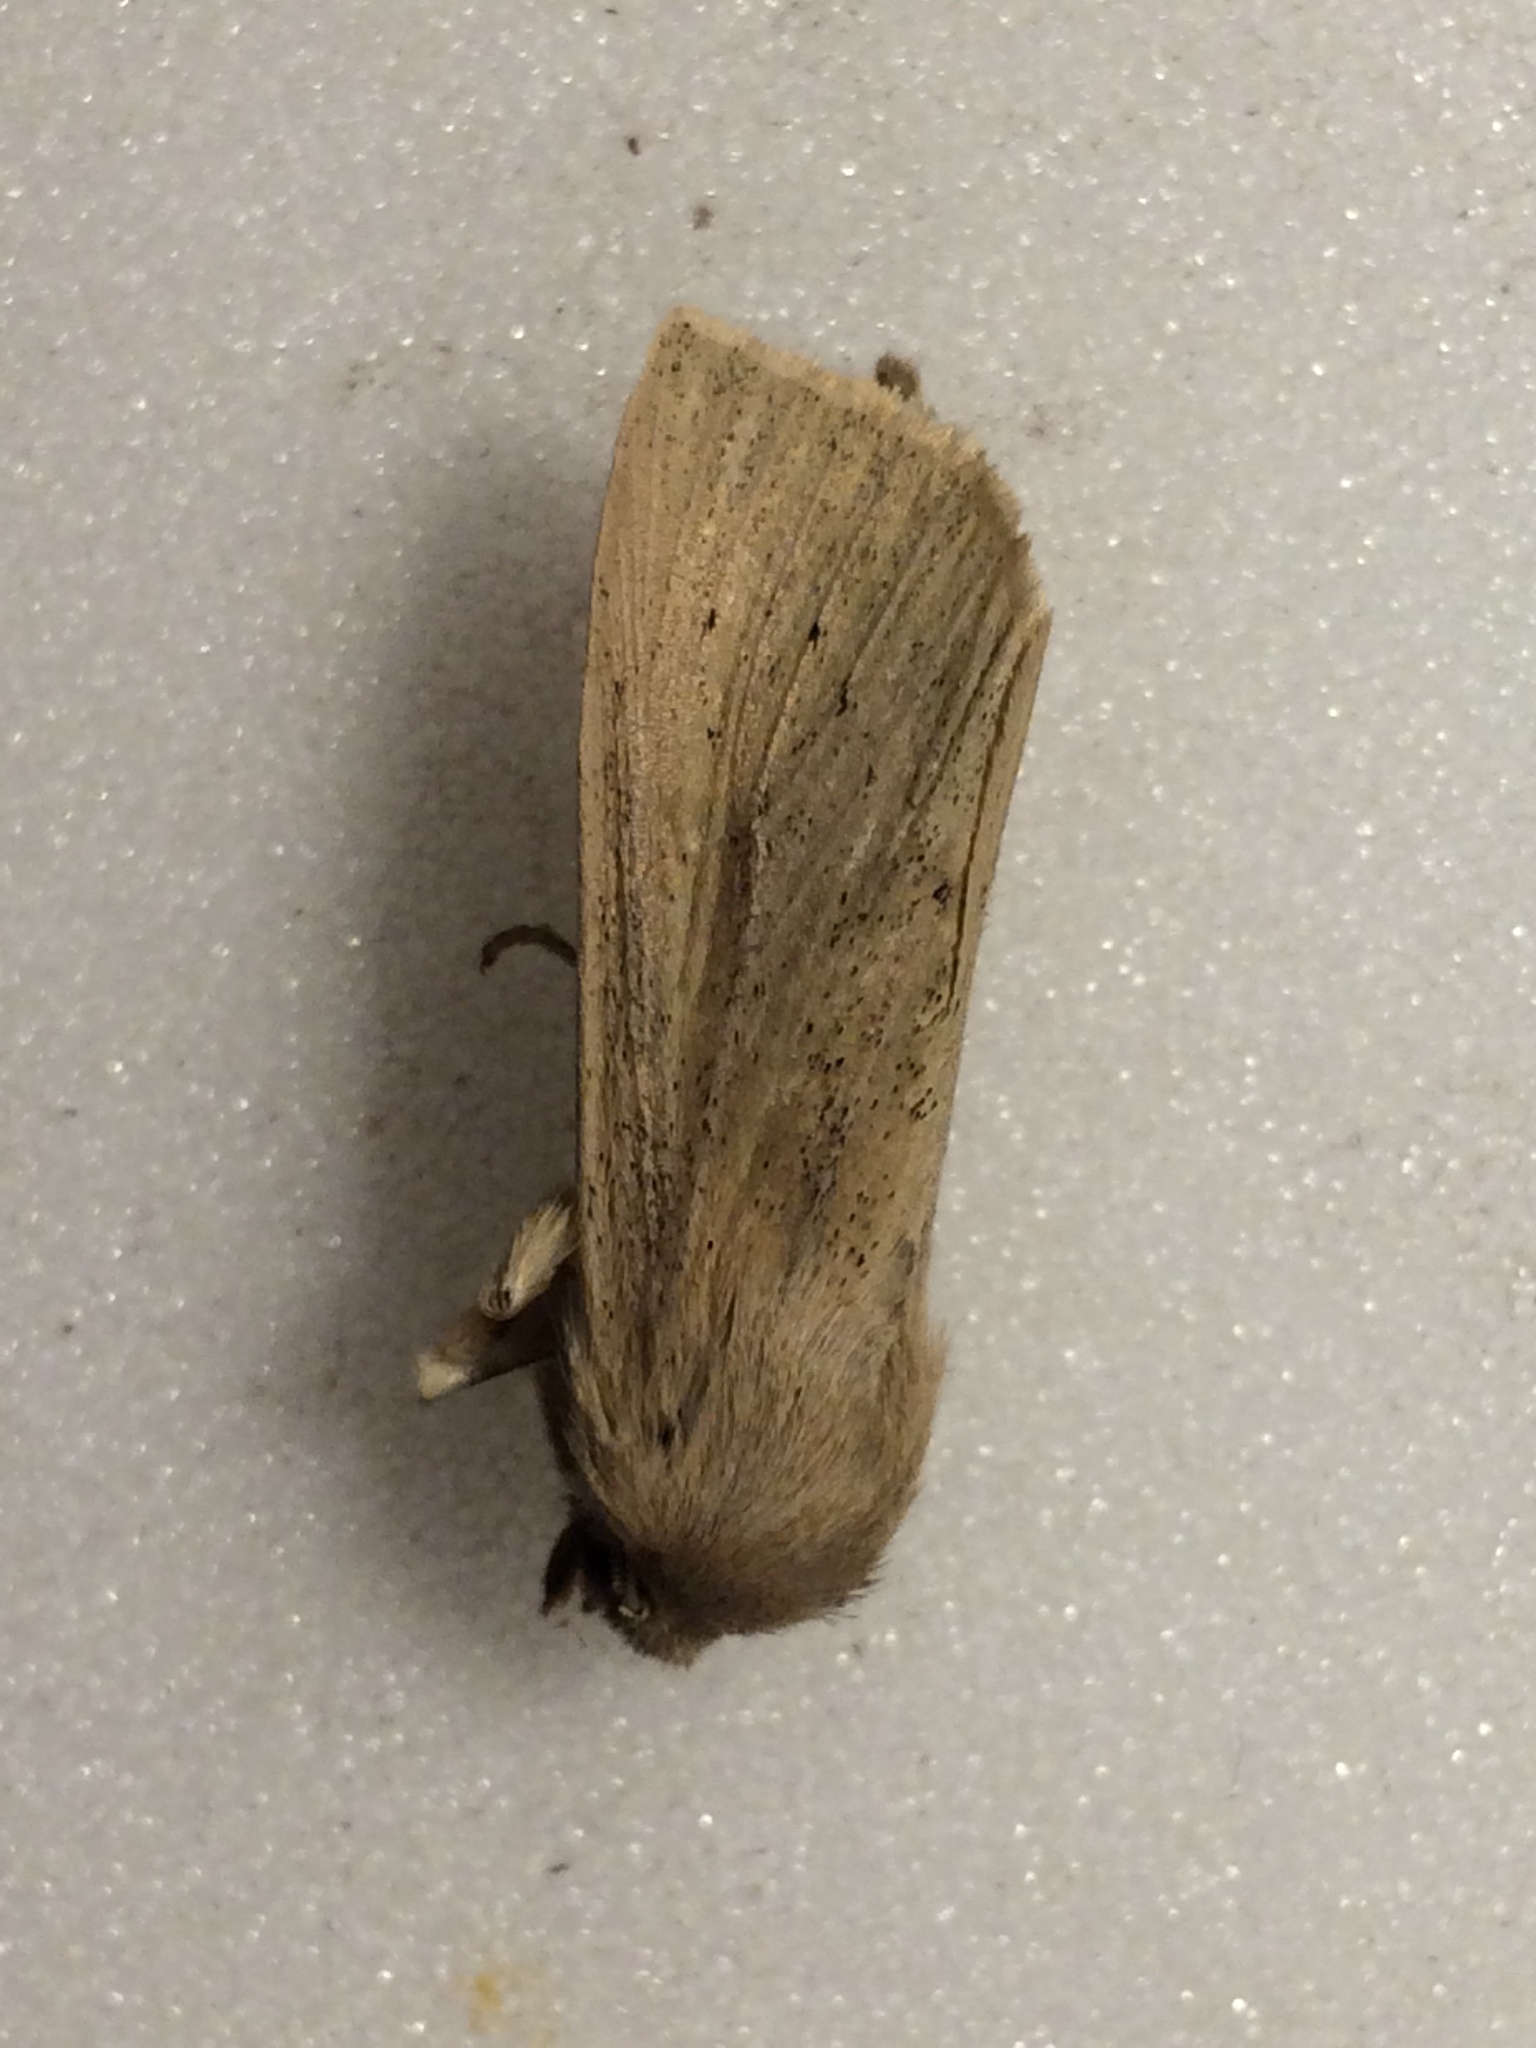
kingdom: Animalia
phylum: Arthropoda
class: Insecta
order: Lepidoptera
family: Noctuidae
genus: Rhizedra
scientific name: Rhizedra lutosa
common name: Large wainscot
